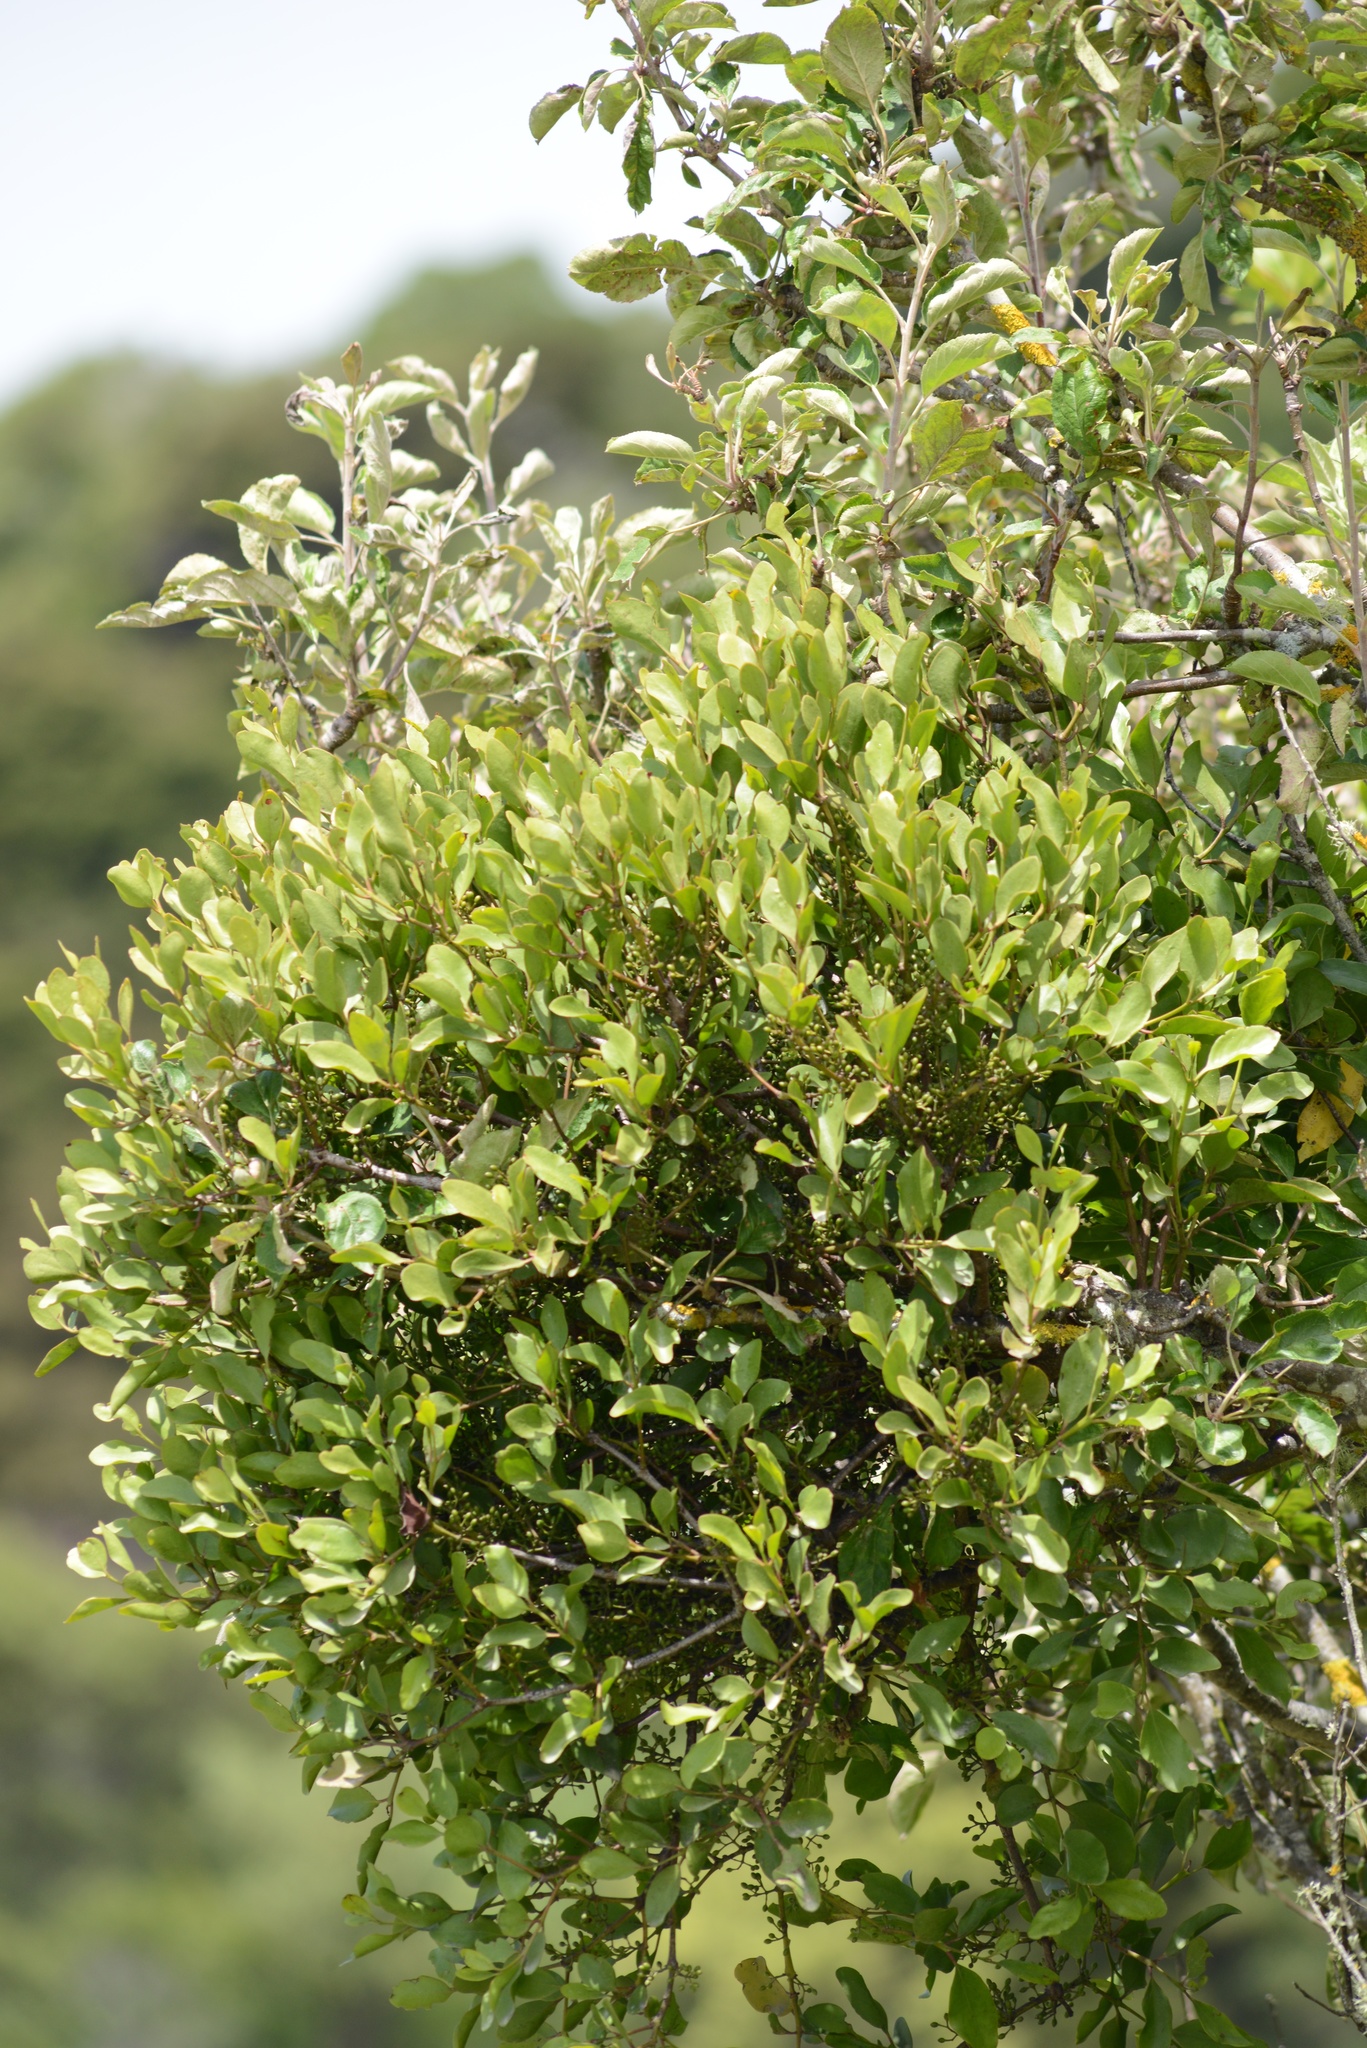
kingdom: Plantae
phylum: Tracheophyta
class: Magnoliopsida
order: Santalales
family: Loranthaceae
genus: Ileostylus
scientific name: Ileostylus micranthus
